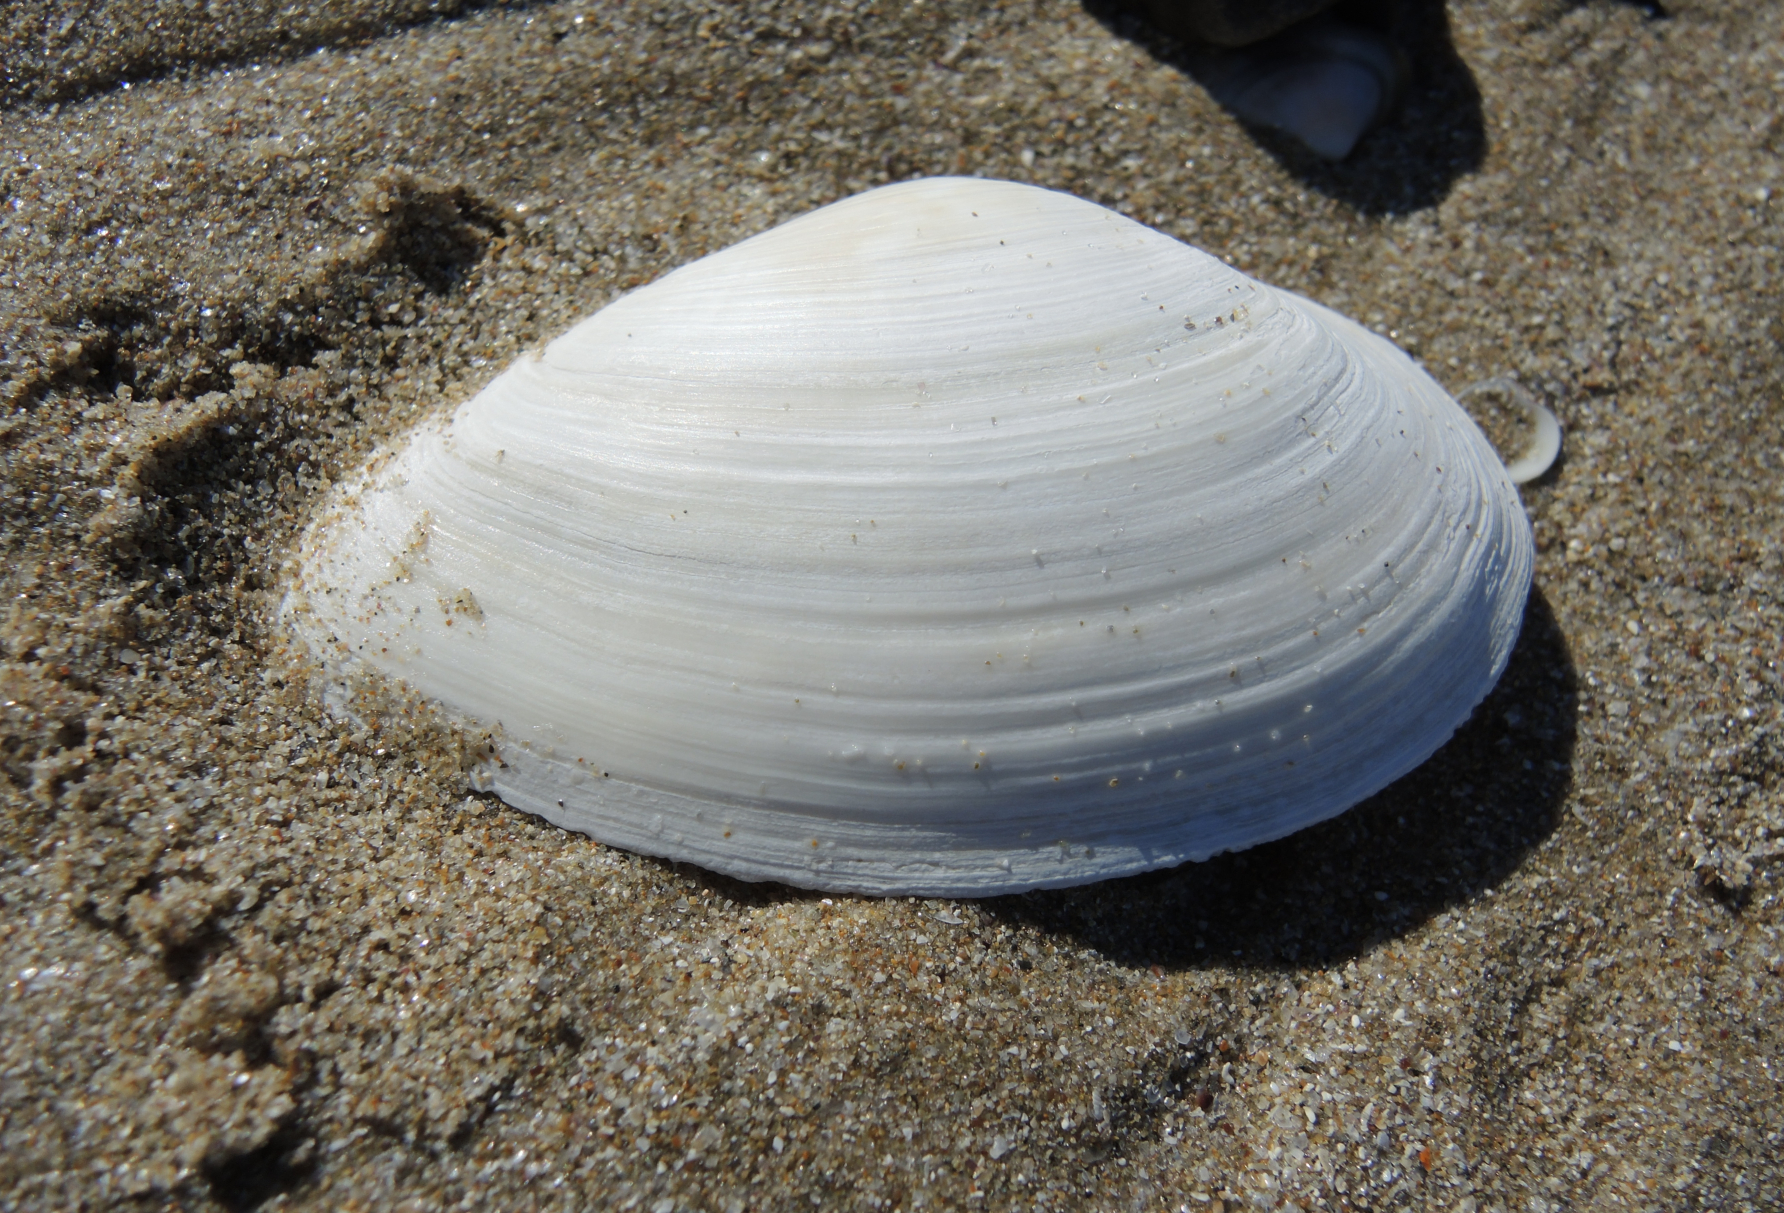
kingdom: Animalia
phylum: Mollusca
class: Bivalvia
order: Myida
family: Myidae
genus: Mya
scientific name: Mya arenaria
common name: Soft-shelled clam
